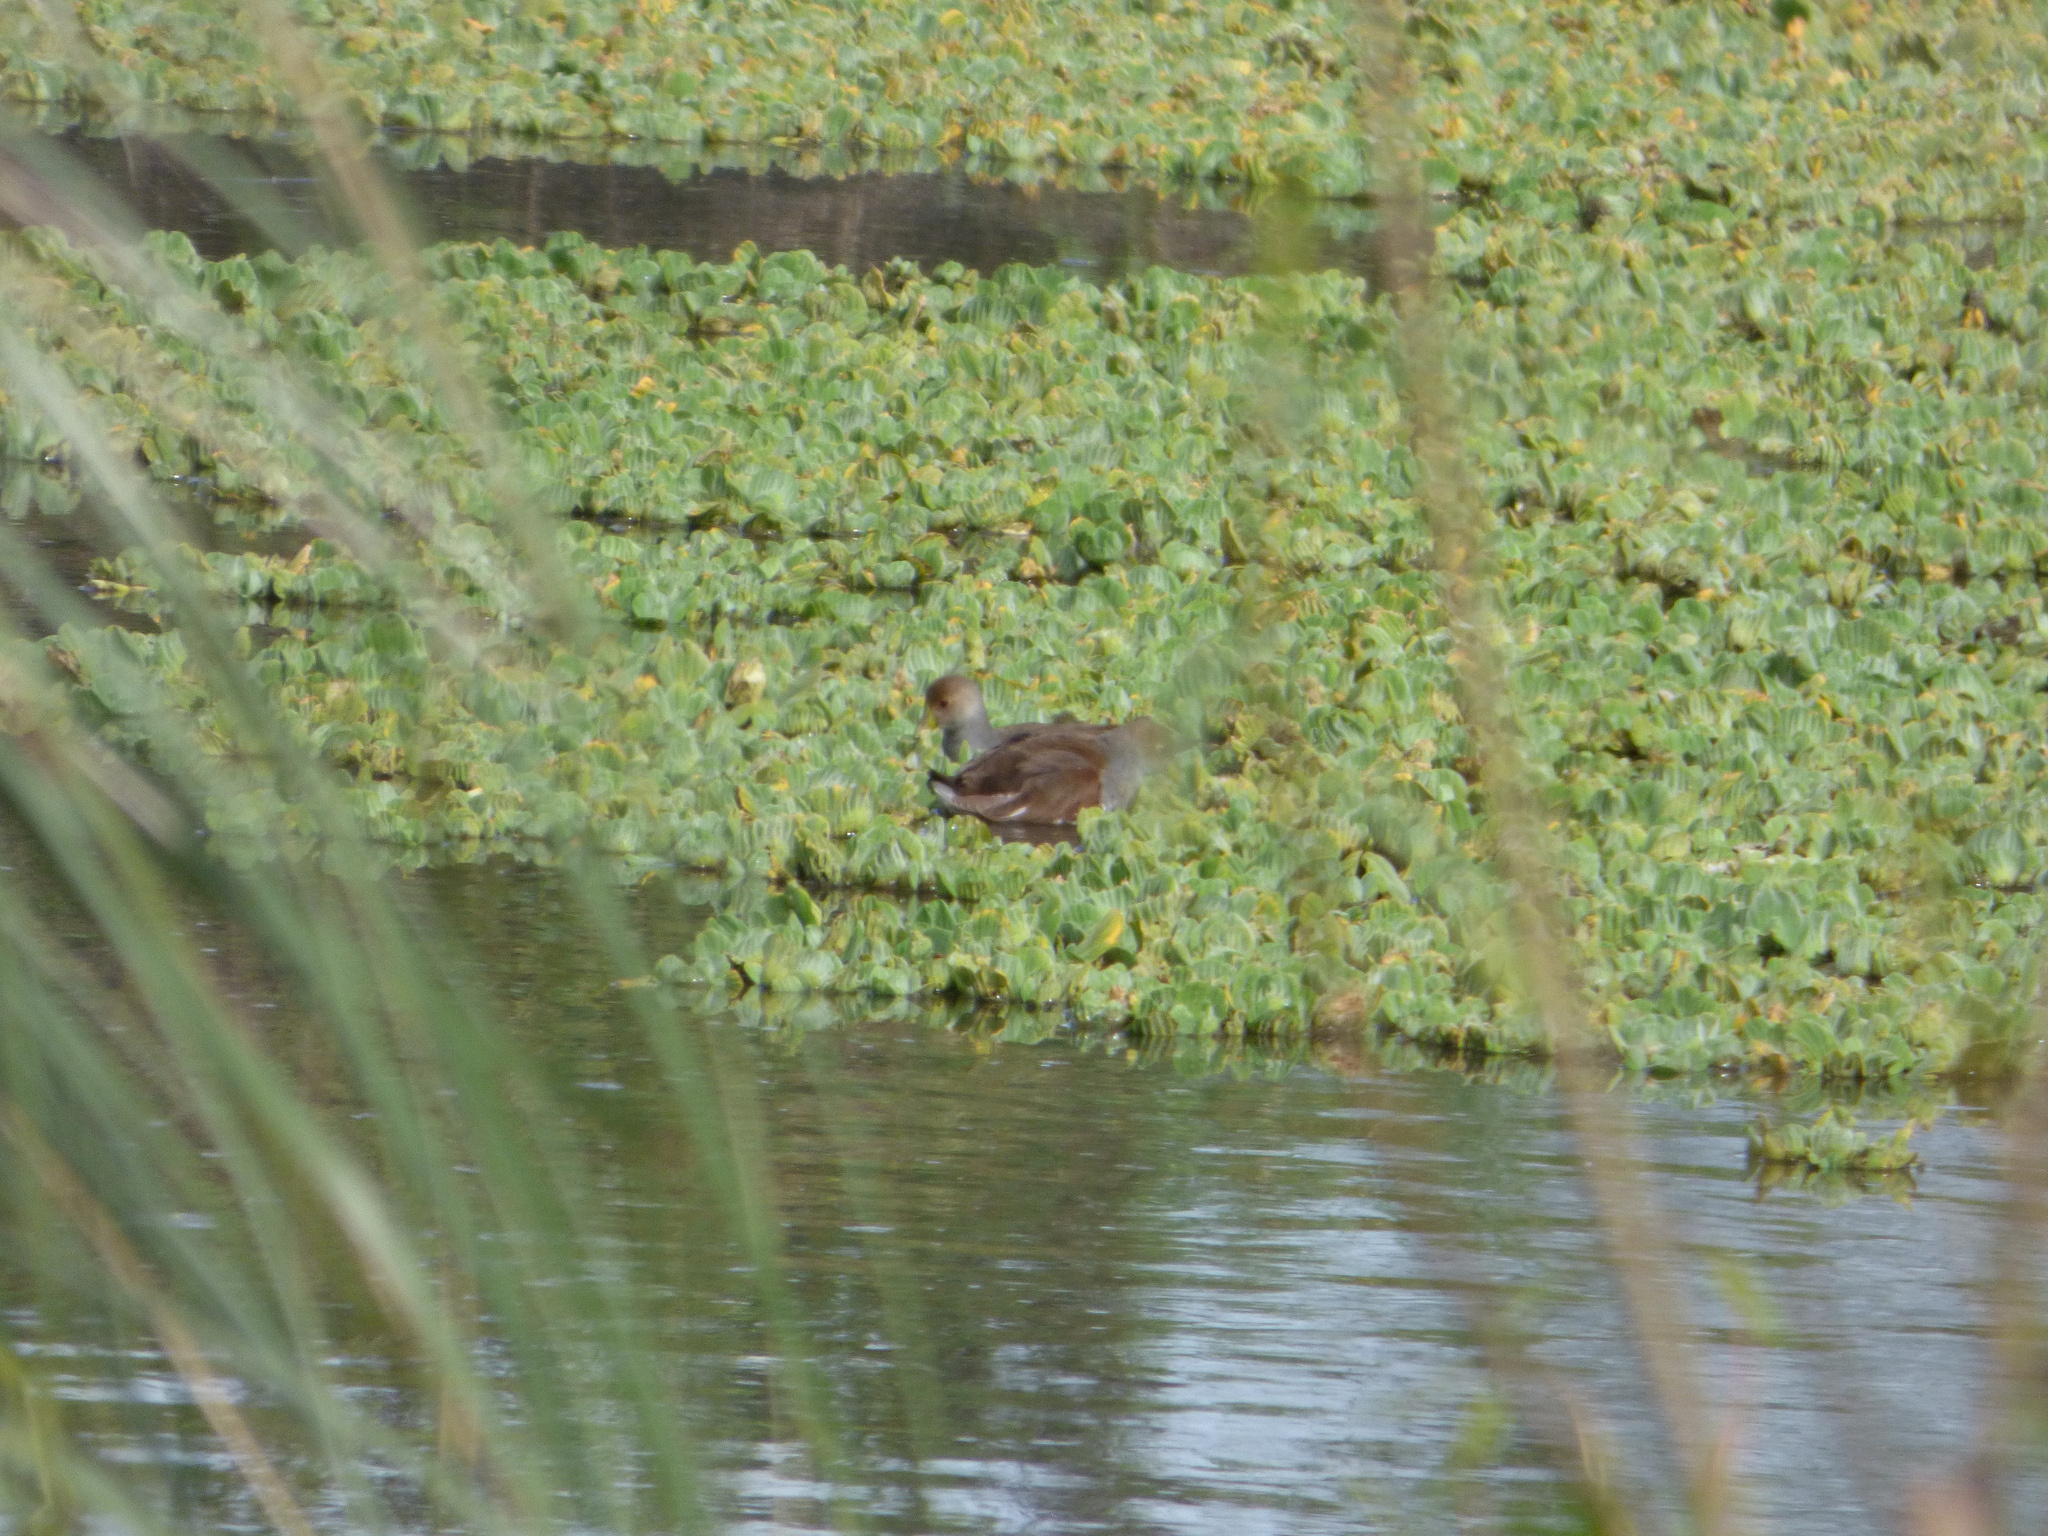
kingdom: Animalia
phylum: Chordata
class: Aves
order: Gruiformes
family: Rallidae
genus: Gallinula
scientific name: Gallinula melanops
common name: Spot-flanked gallinule
